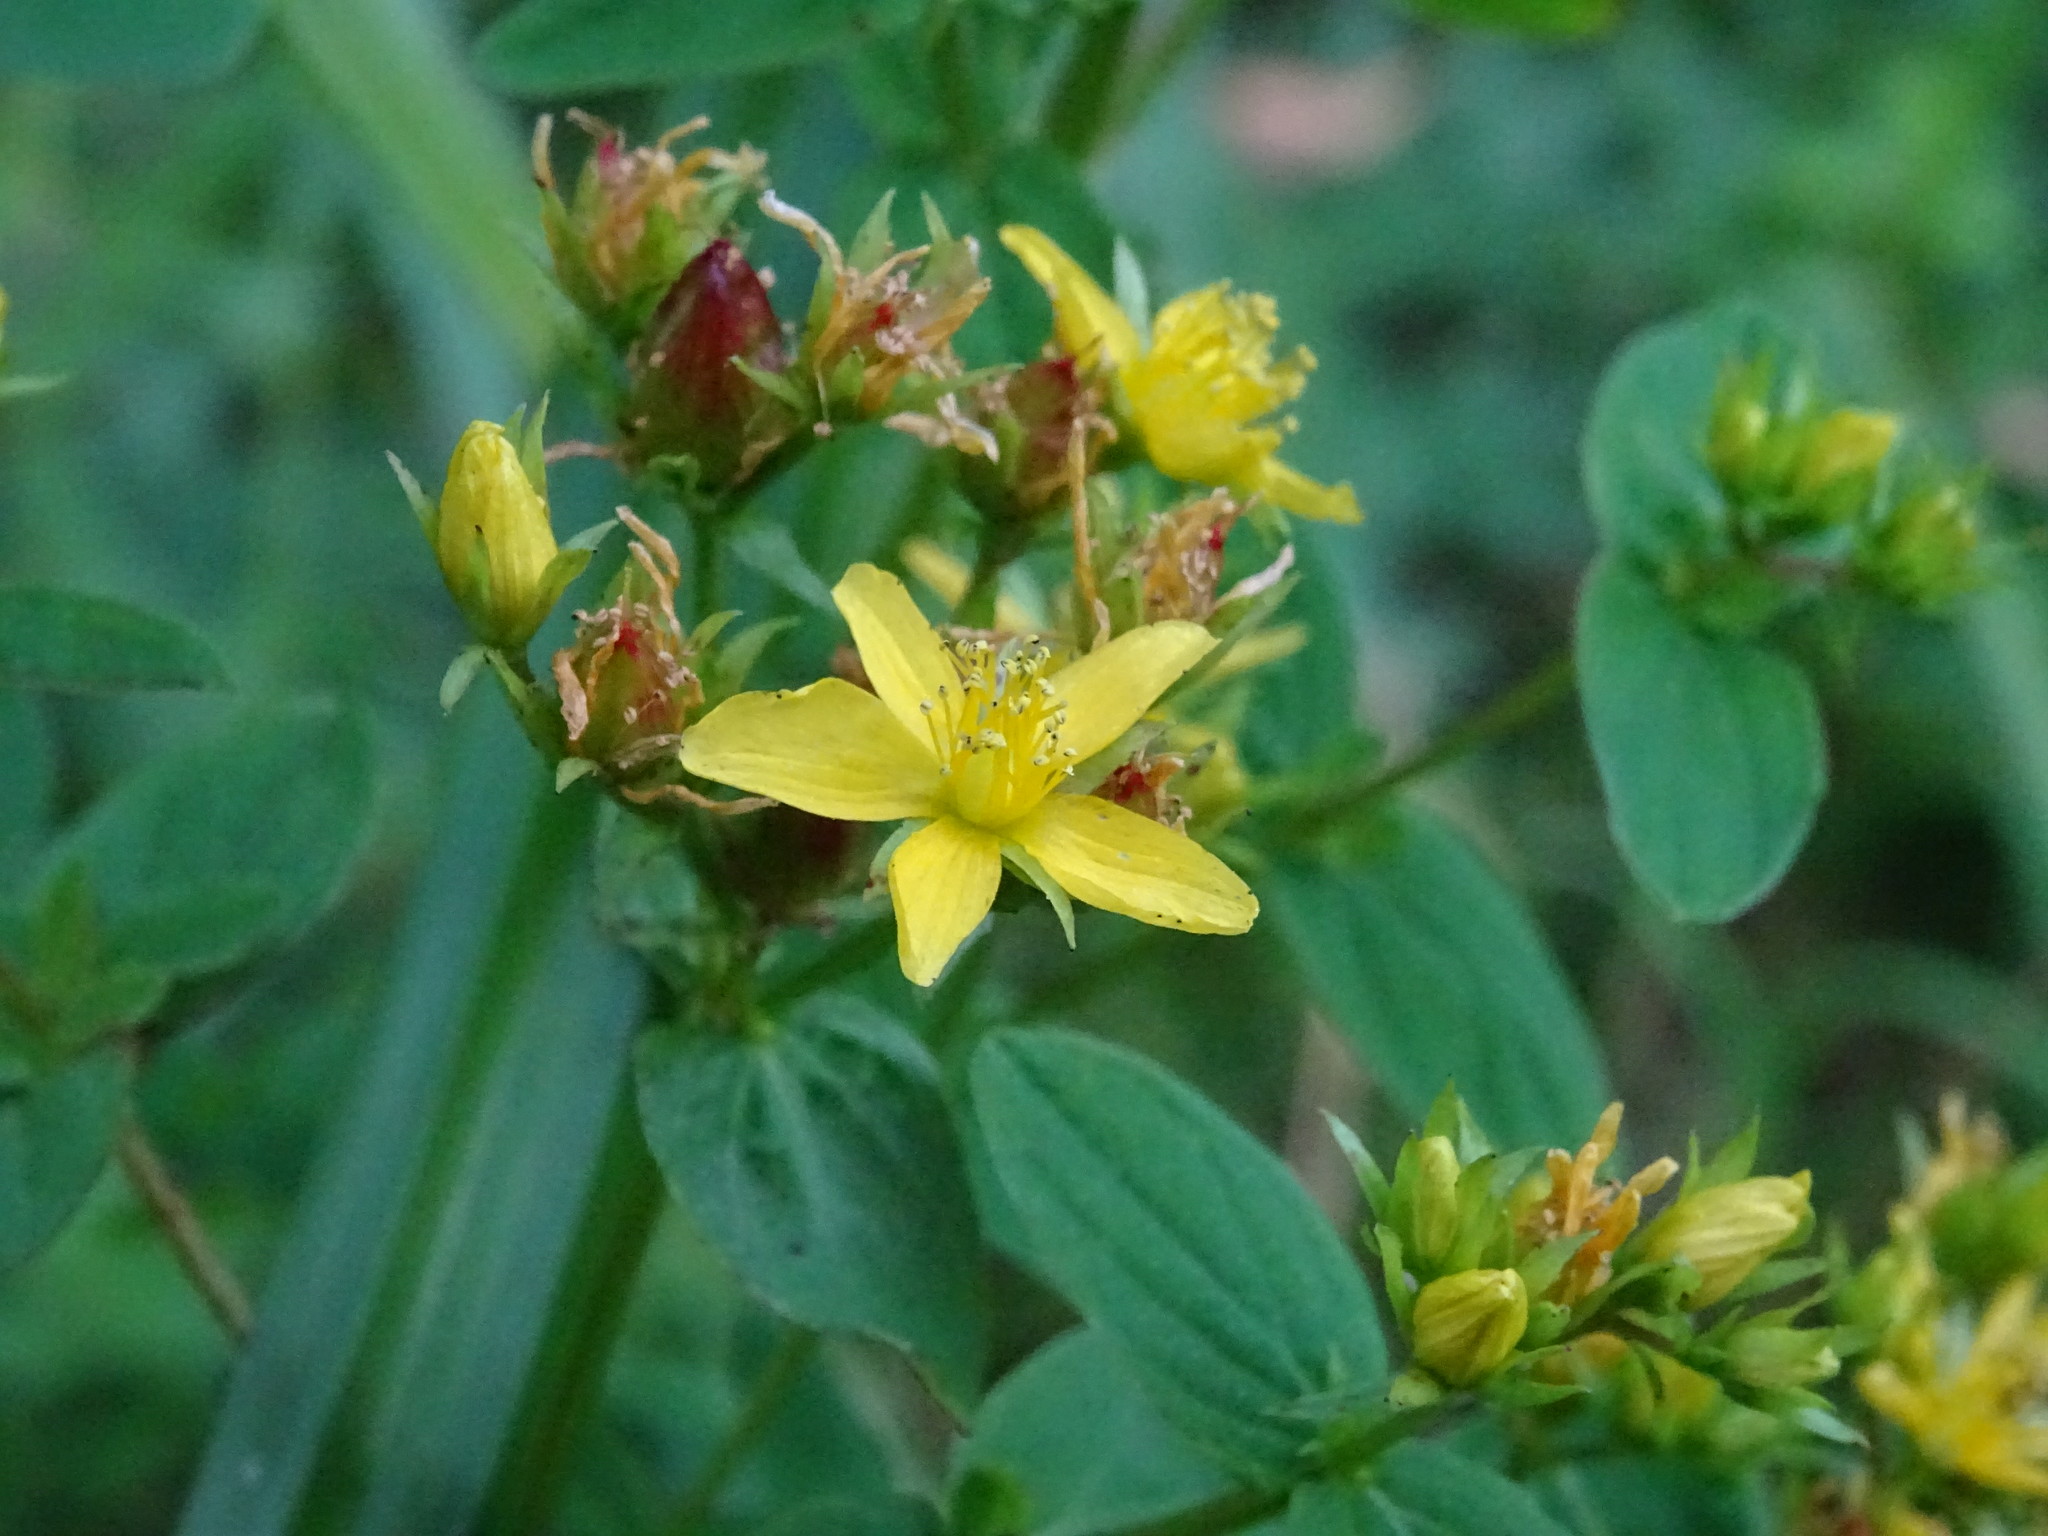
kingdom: Plantae
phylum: Tracheophyta
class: Magnoliopsida
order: Malpighiales
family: Hypericaceae
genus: Hypericum
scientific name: Hypericum tetrapterum
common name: Square-stalked st. john's-wort
